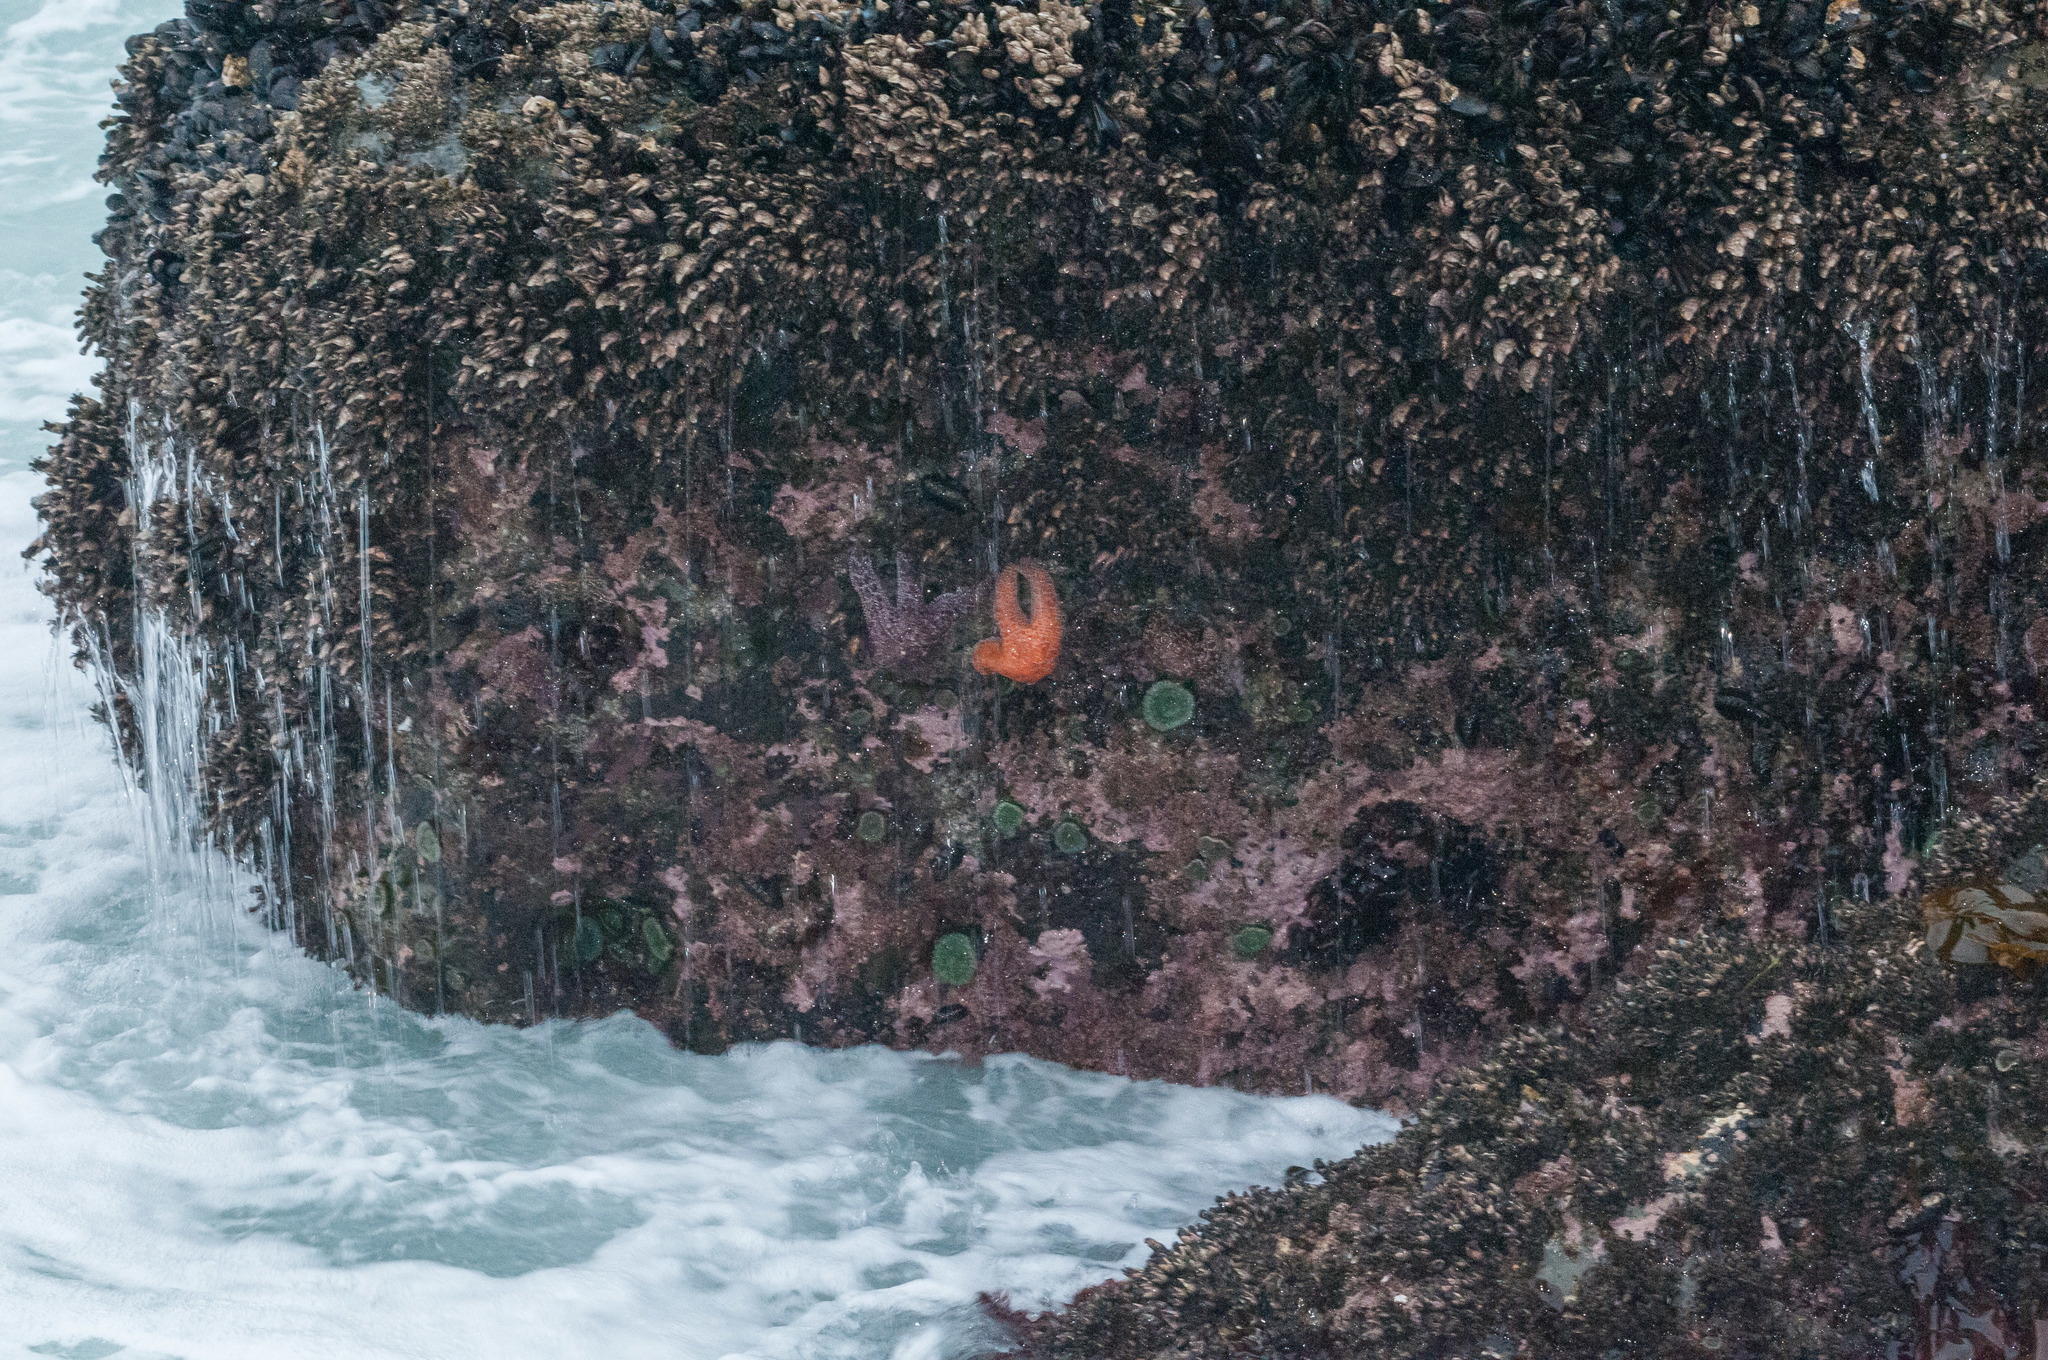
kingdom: Animalia
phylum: Echinodermata
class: Asteroidea
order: Forcipulatida
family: Asteriidae
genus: Pisaster
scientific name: Pisaster ochraceus
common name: Ochre stars
